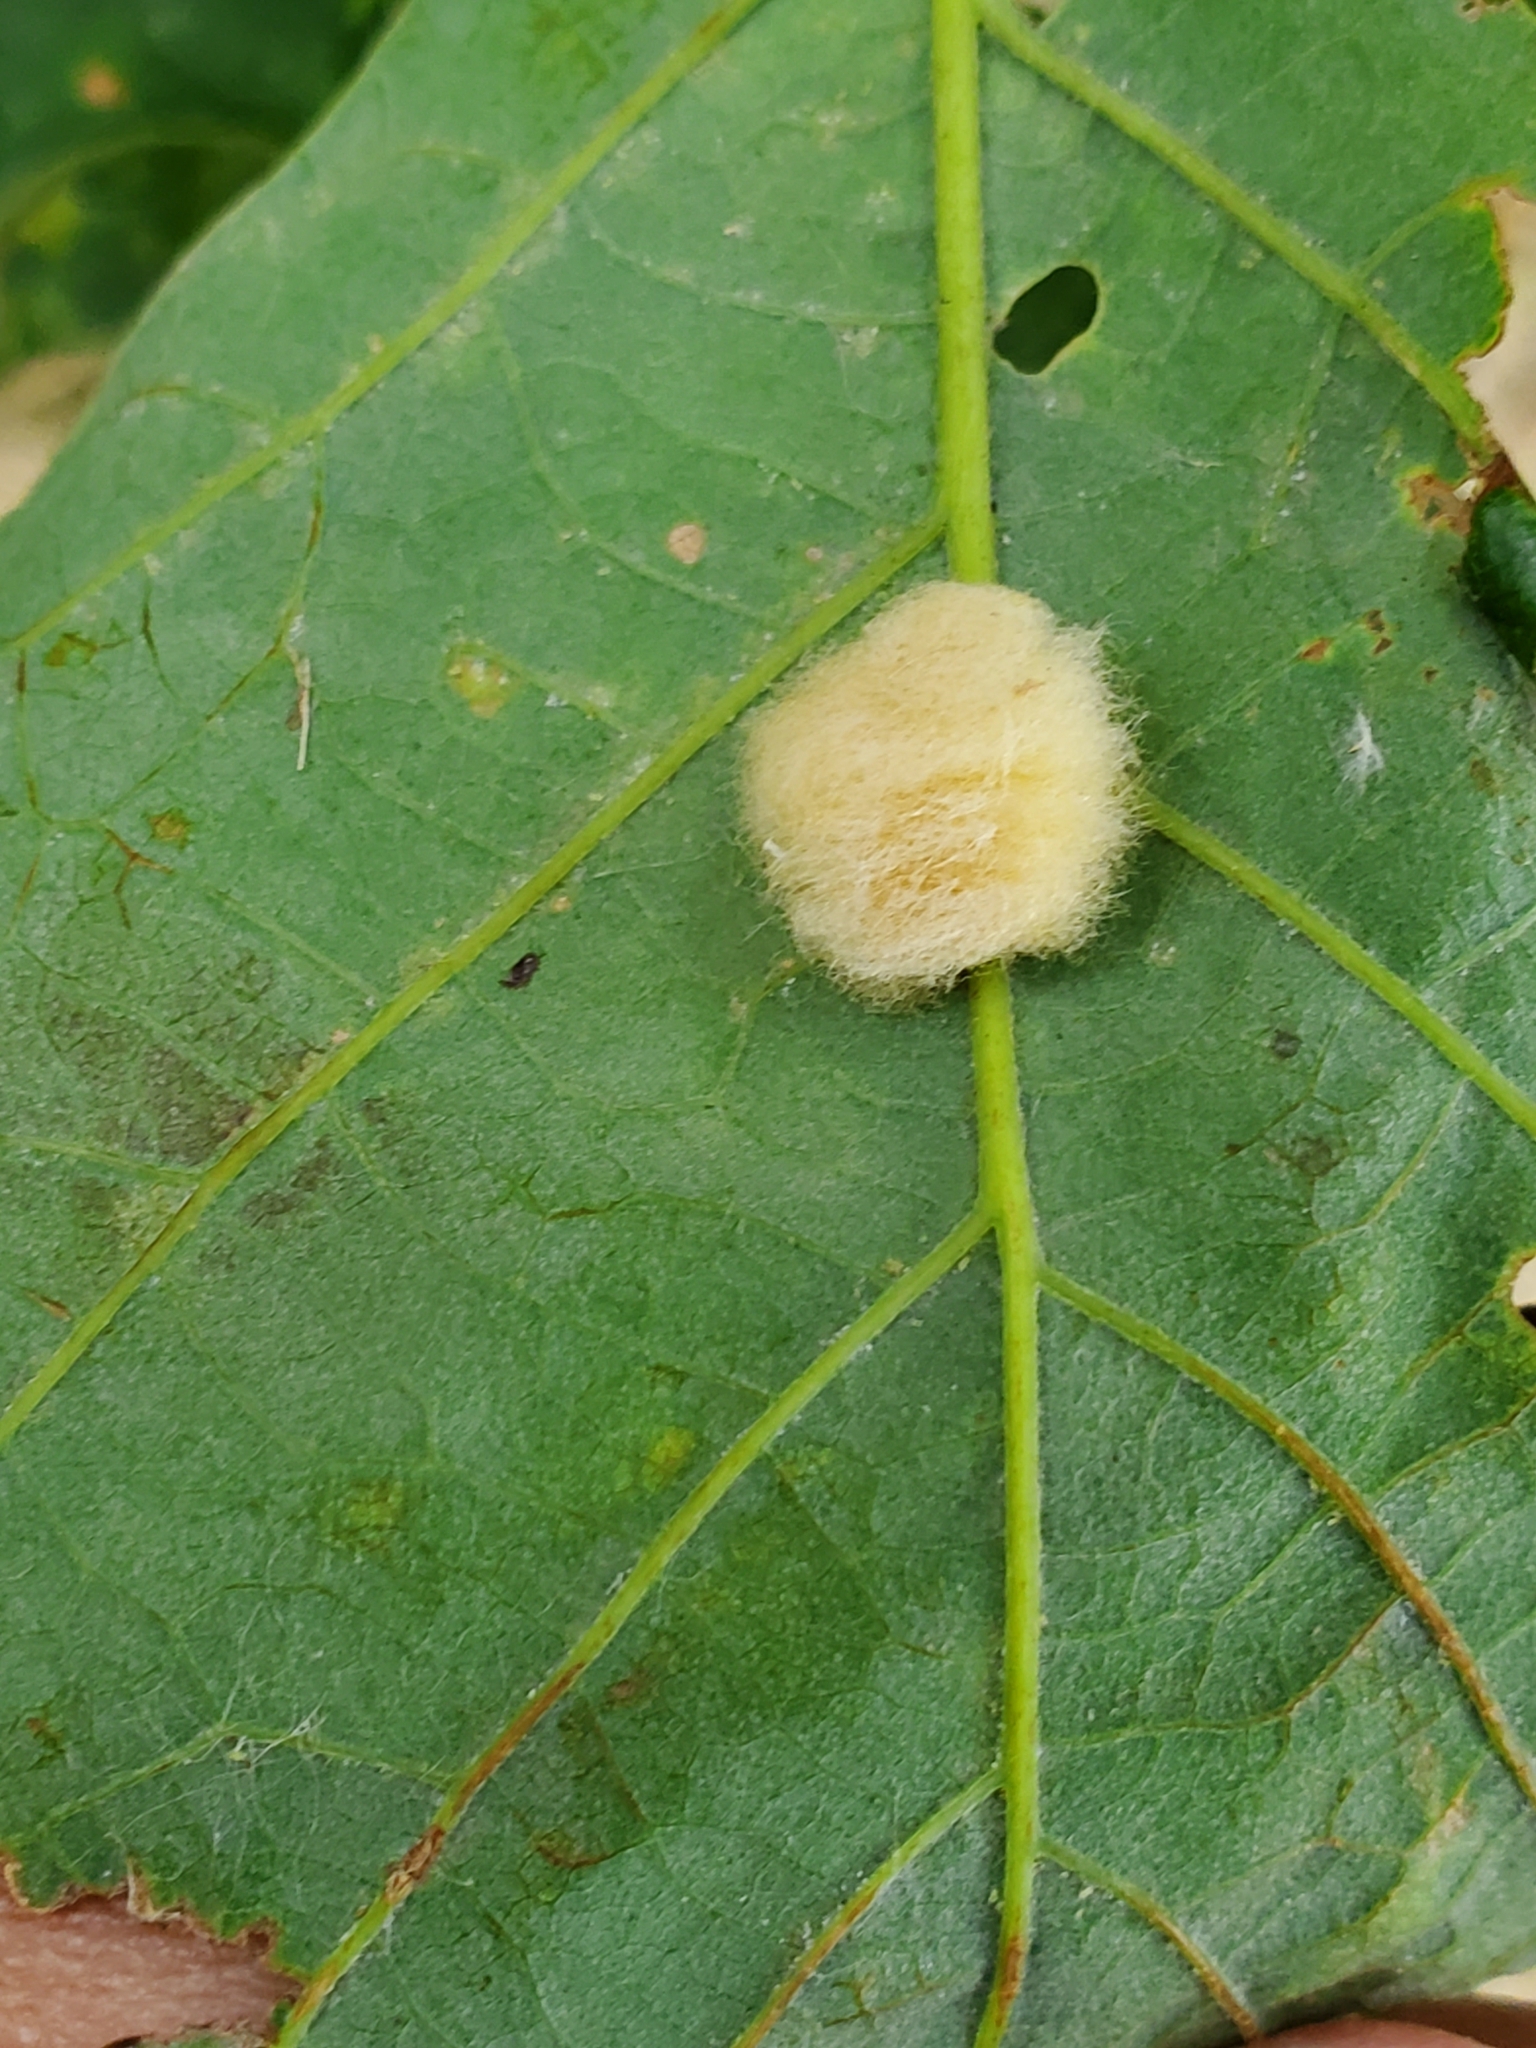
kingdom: Animalia
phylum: Arthropoda
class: Insecta
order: Hymenoptera
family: Cynipidae
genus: Andricus
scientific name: Andricus Druon ignotum
